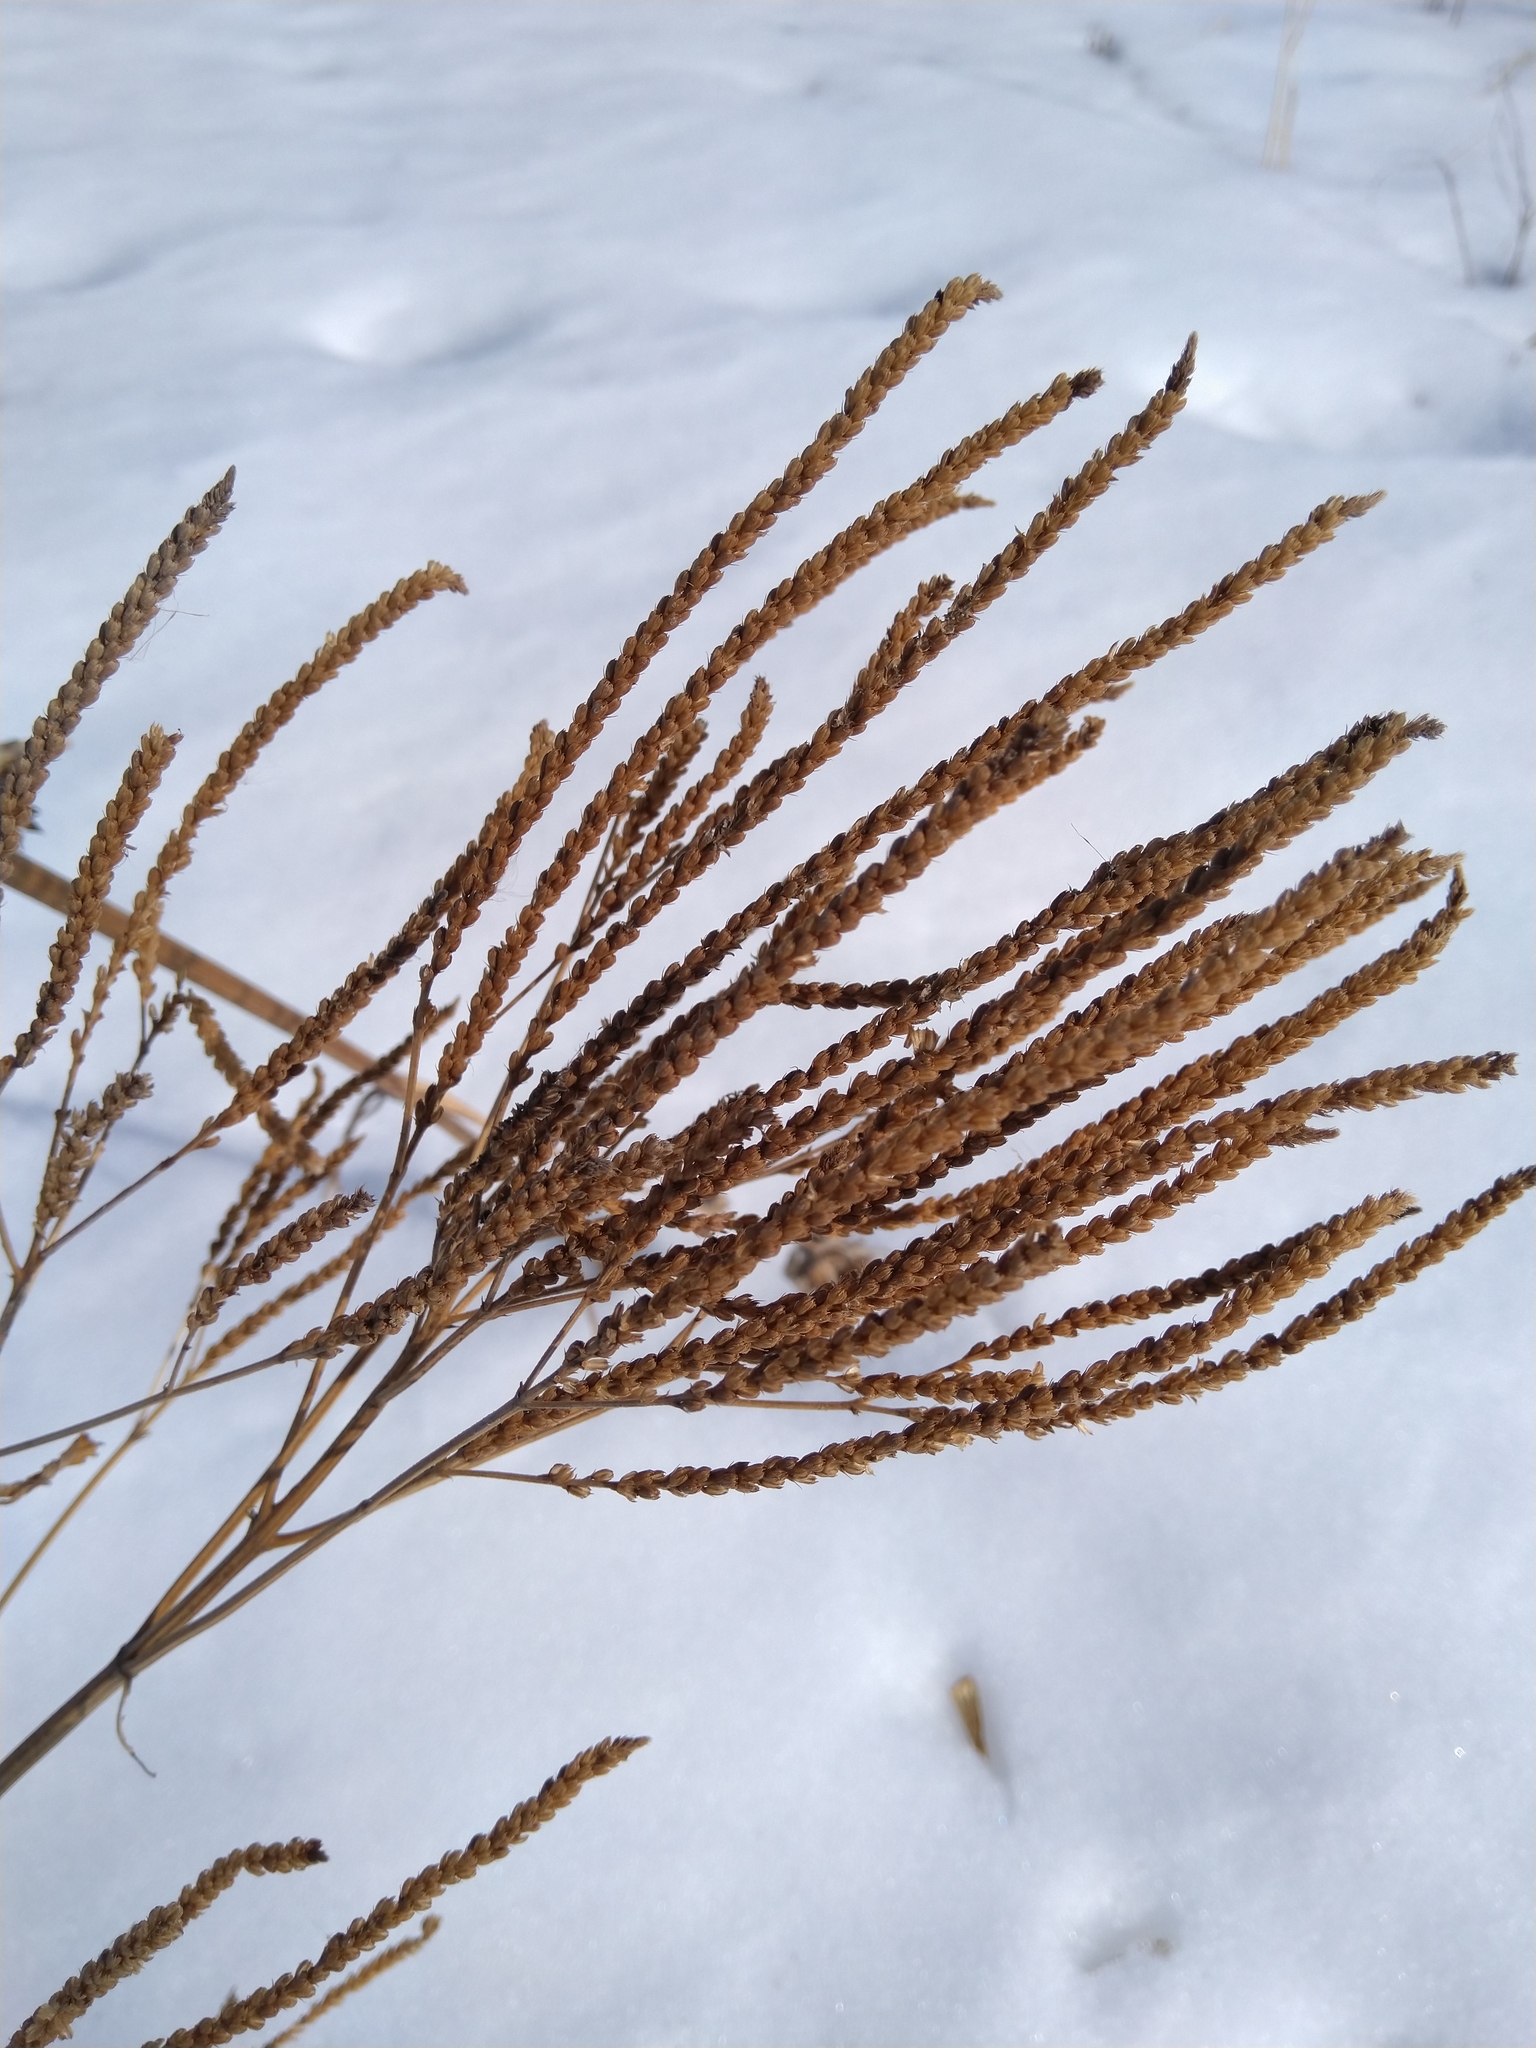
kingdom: Plantae
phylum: Tracheophyta
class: Magnoliopsida
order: Lamiales
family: Verbenaceae
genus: Verbena
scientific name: Verbena hastata
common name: American blue vervain
